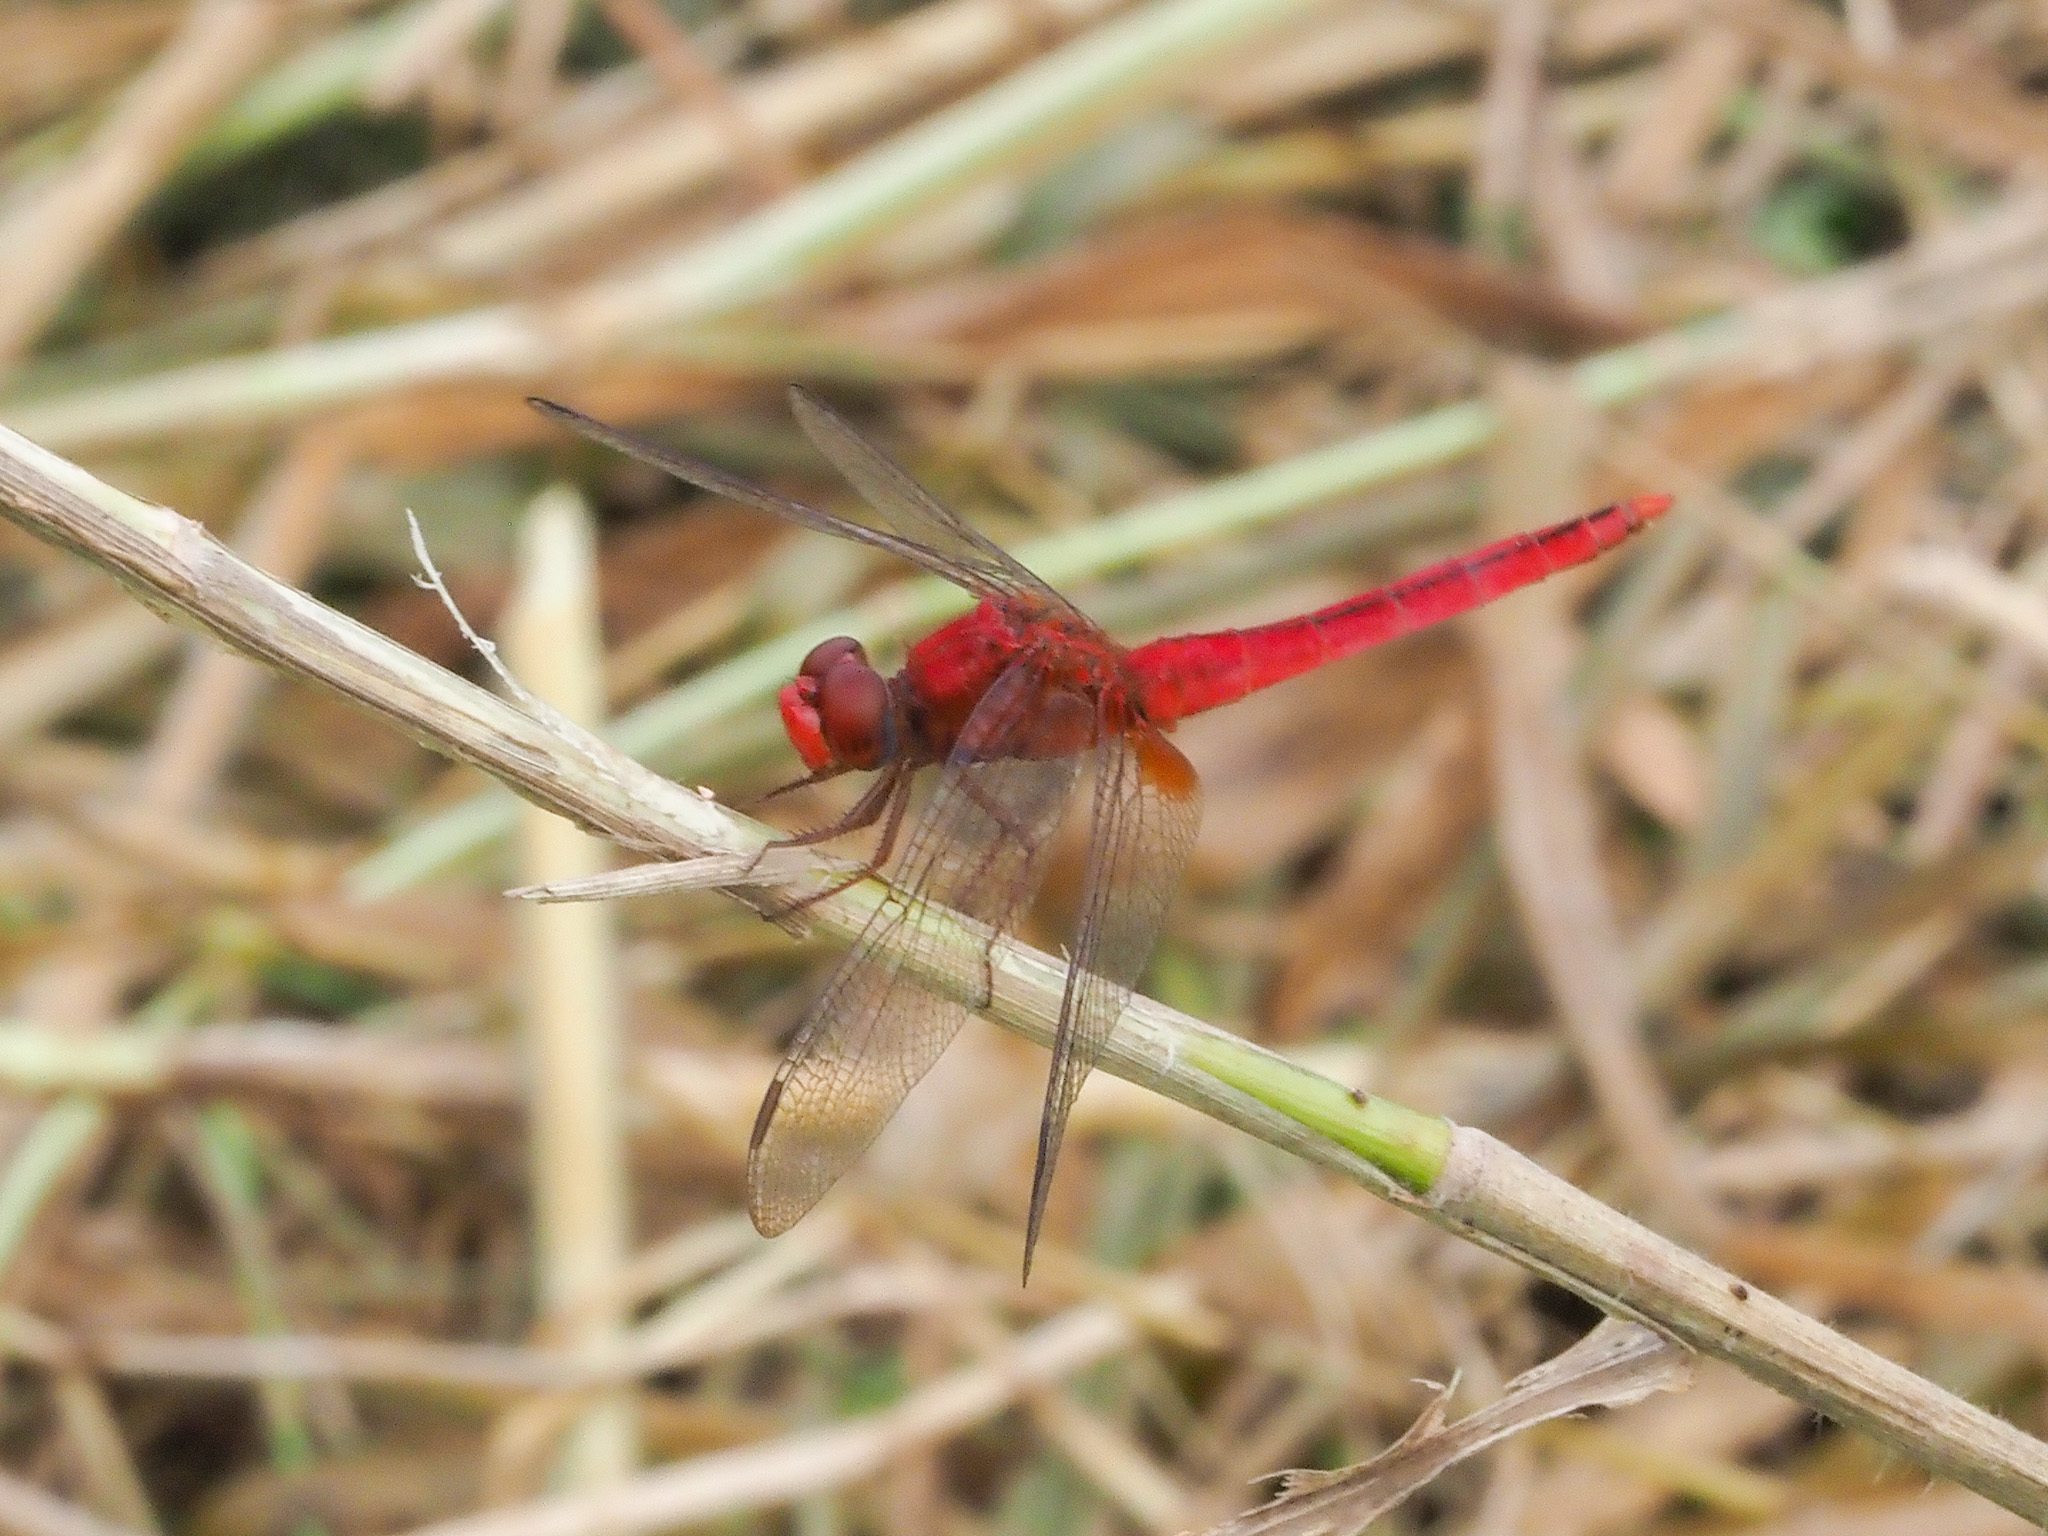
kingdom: Animalia
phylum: Arthropoda
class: Insecta
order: Odonata
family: Libellulidae
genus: Crocothemis
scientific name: Crocothemis servilia
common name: Scarlet skimmer
